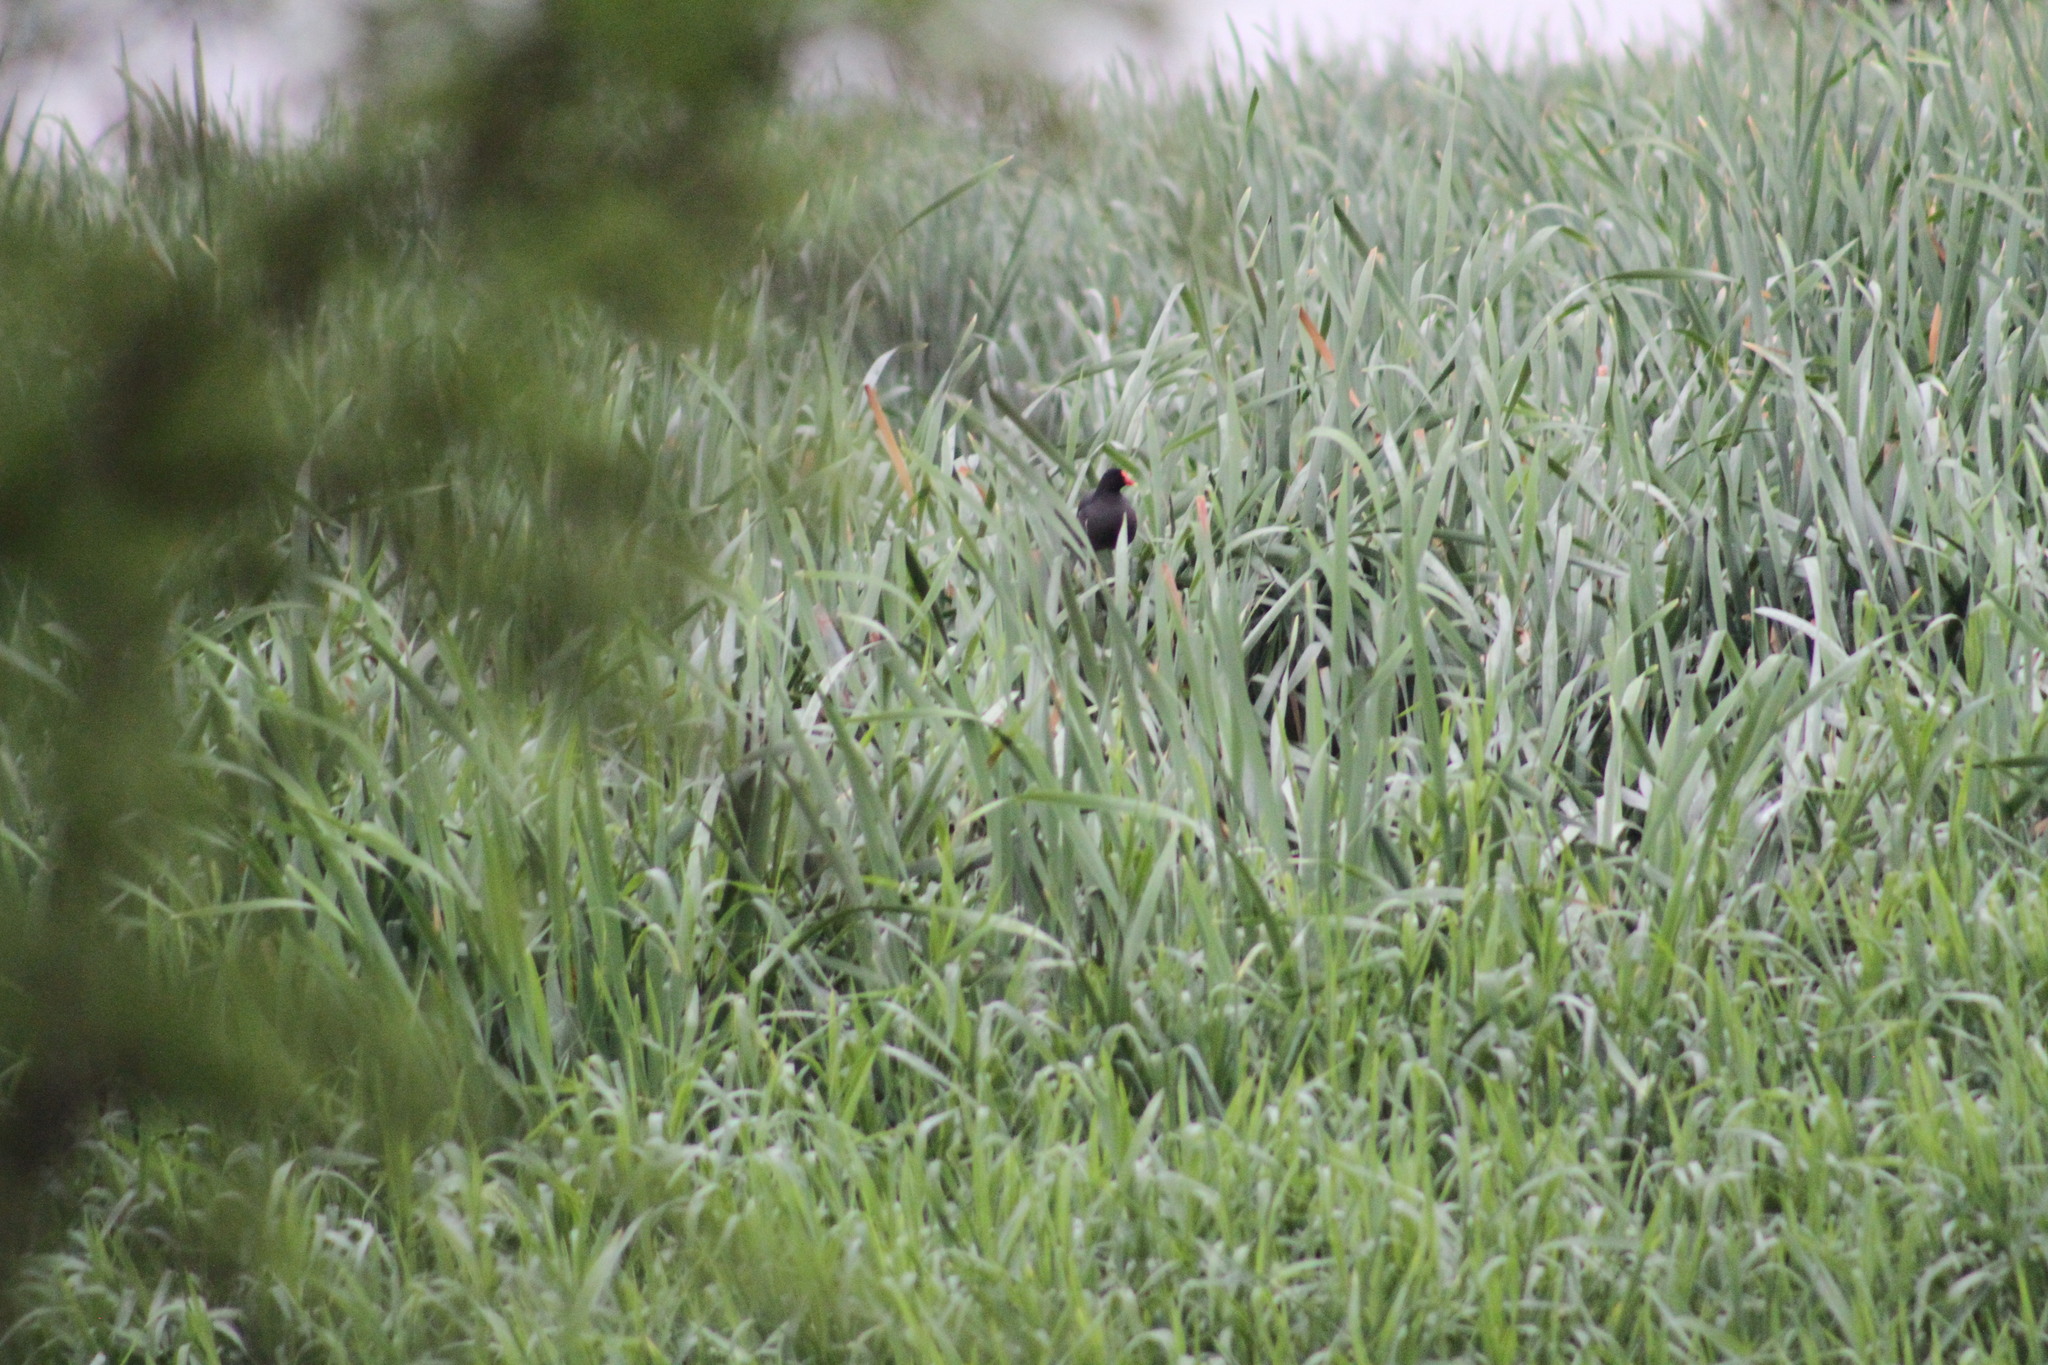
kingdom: Animalia
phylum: Chordata
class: Aves
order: Gruiformes
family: Rallidae
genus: Gallinula
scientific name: Gallinula chloropus
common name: Common moorhen
